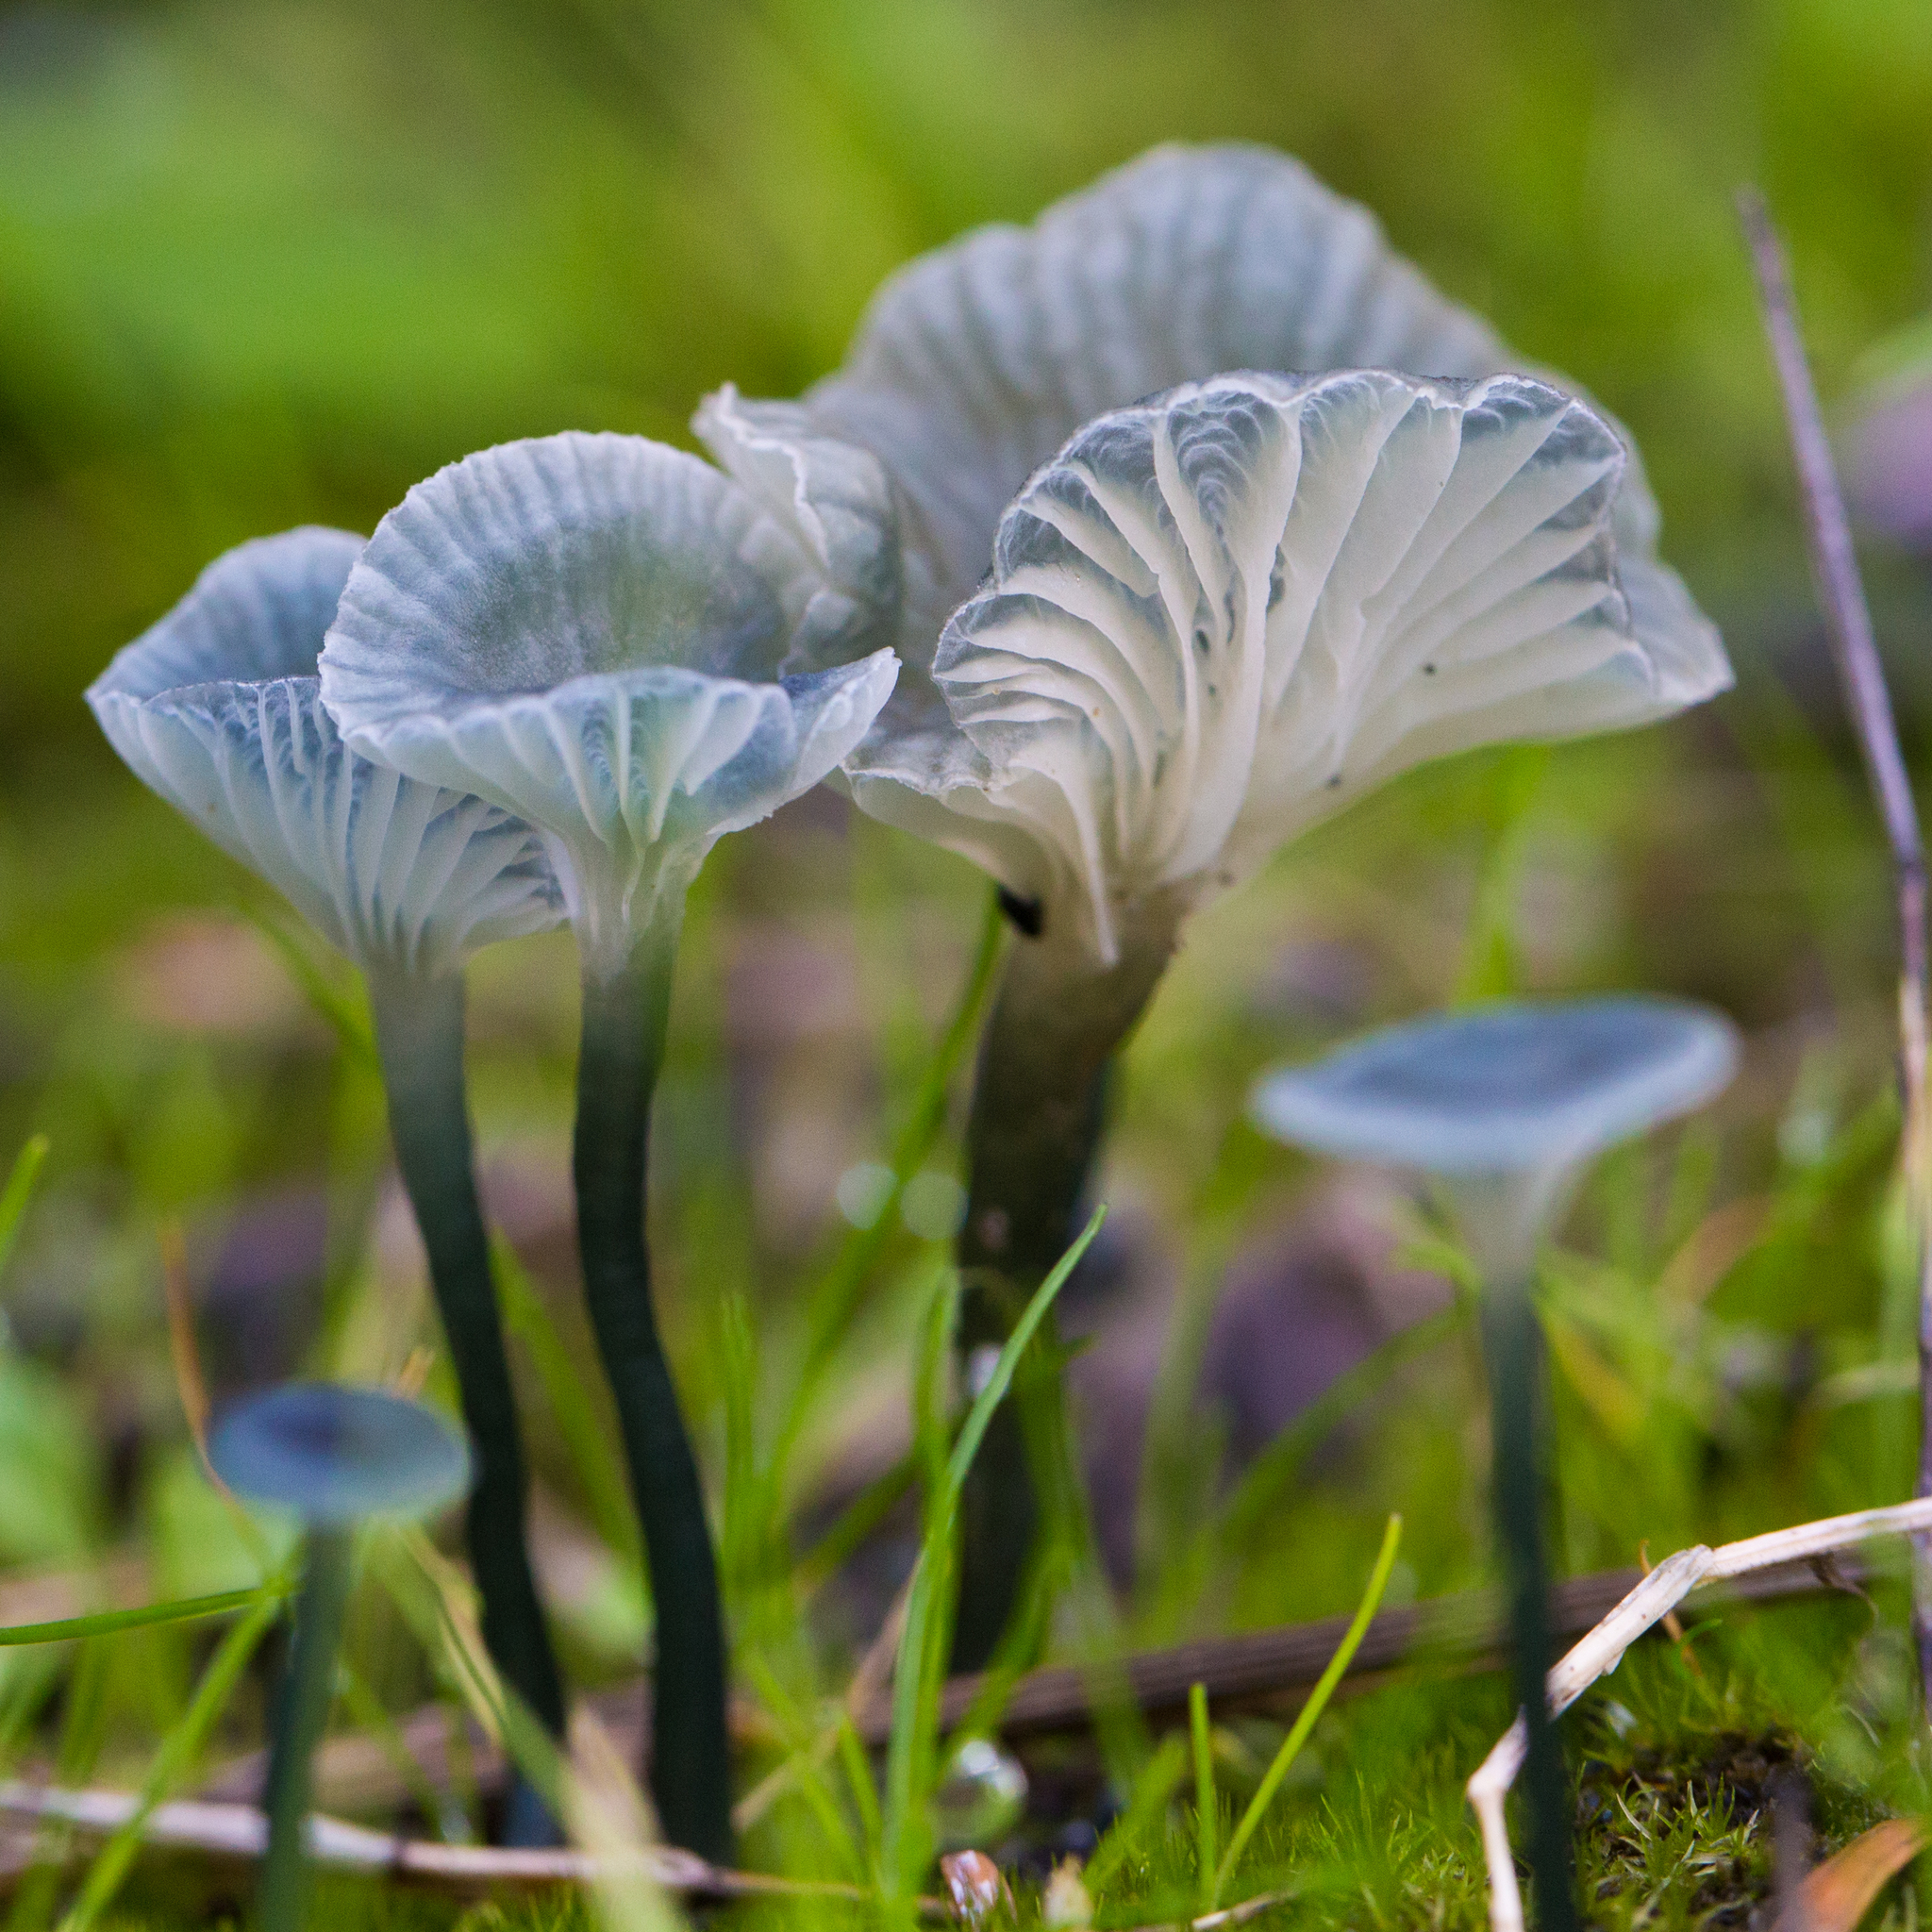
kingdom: Fungi
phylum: Basidiomycota
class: Agaricomycetes
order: Agaricales
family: Hygrophoraceae
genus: Arrhenia
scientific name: Arrhenia chlorocyanea
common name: Verdigris navel
